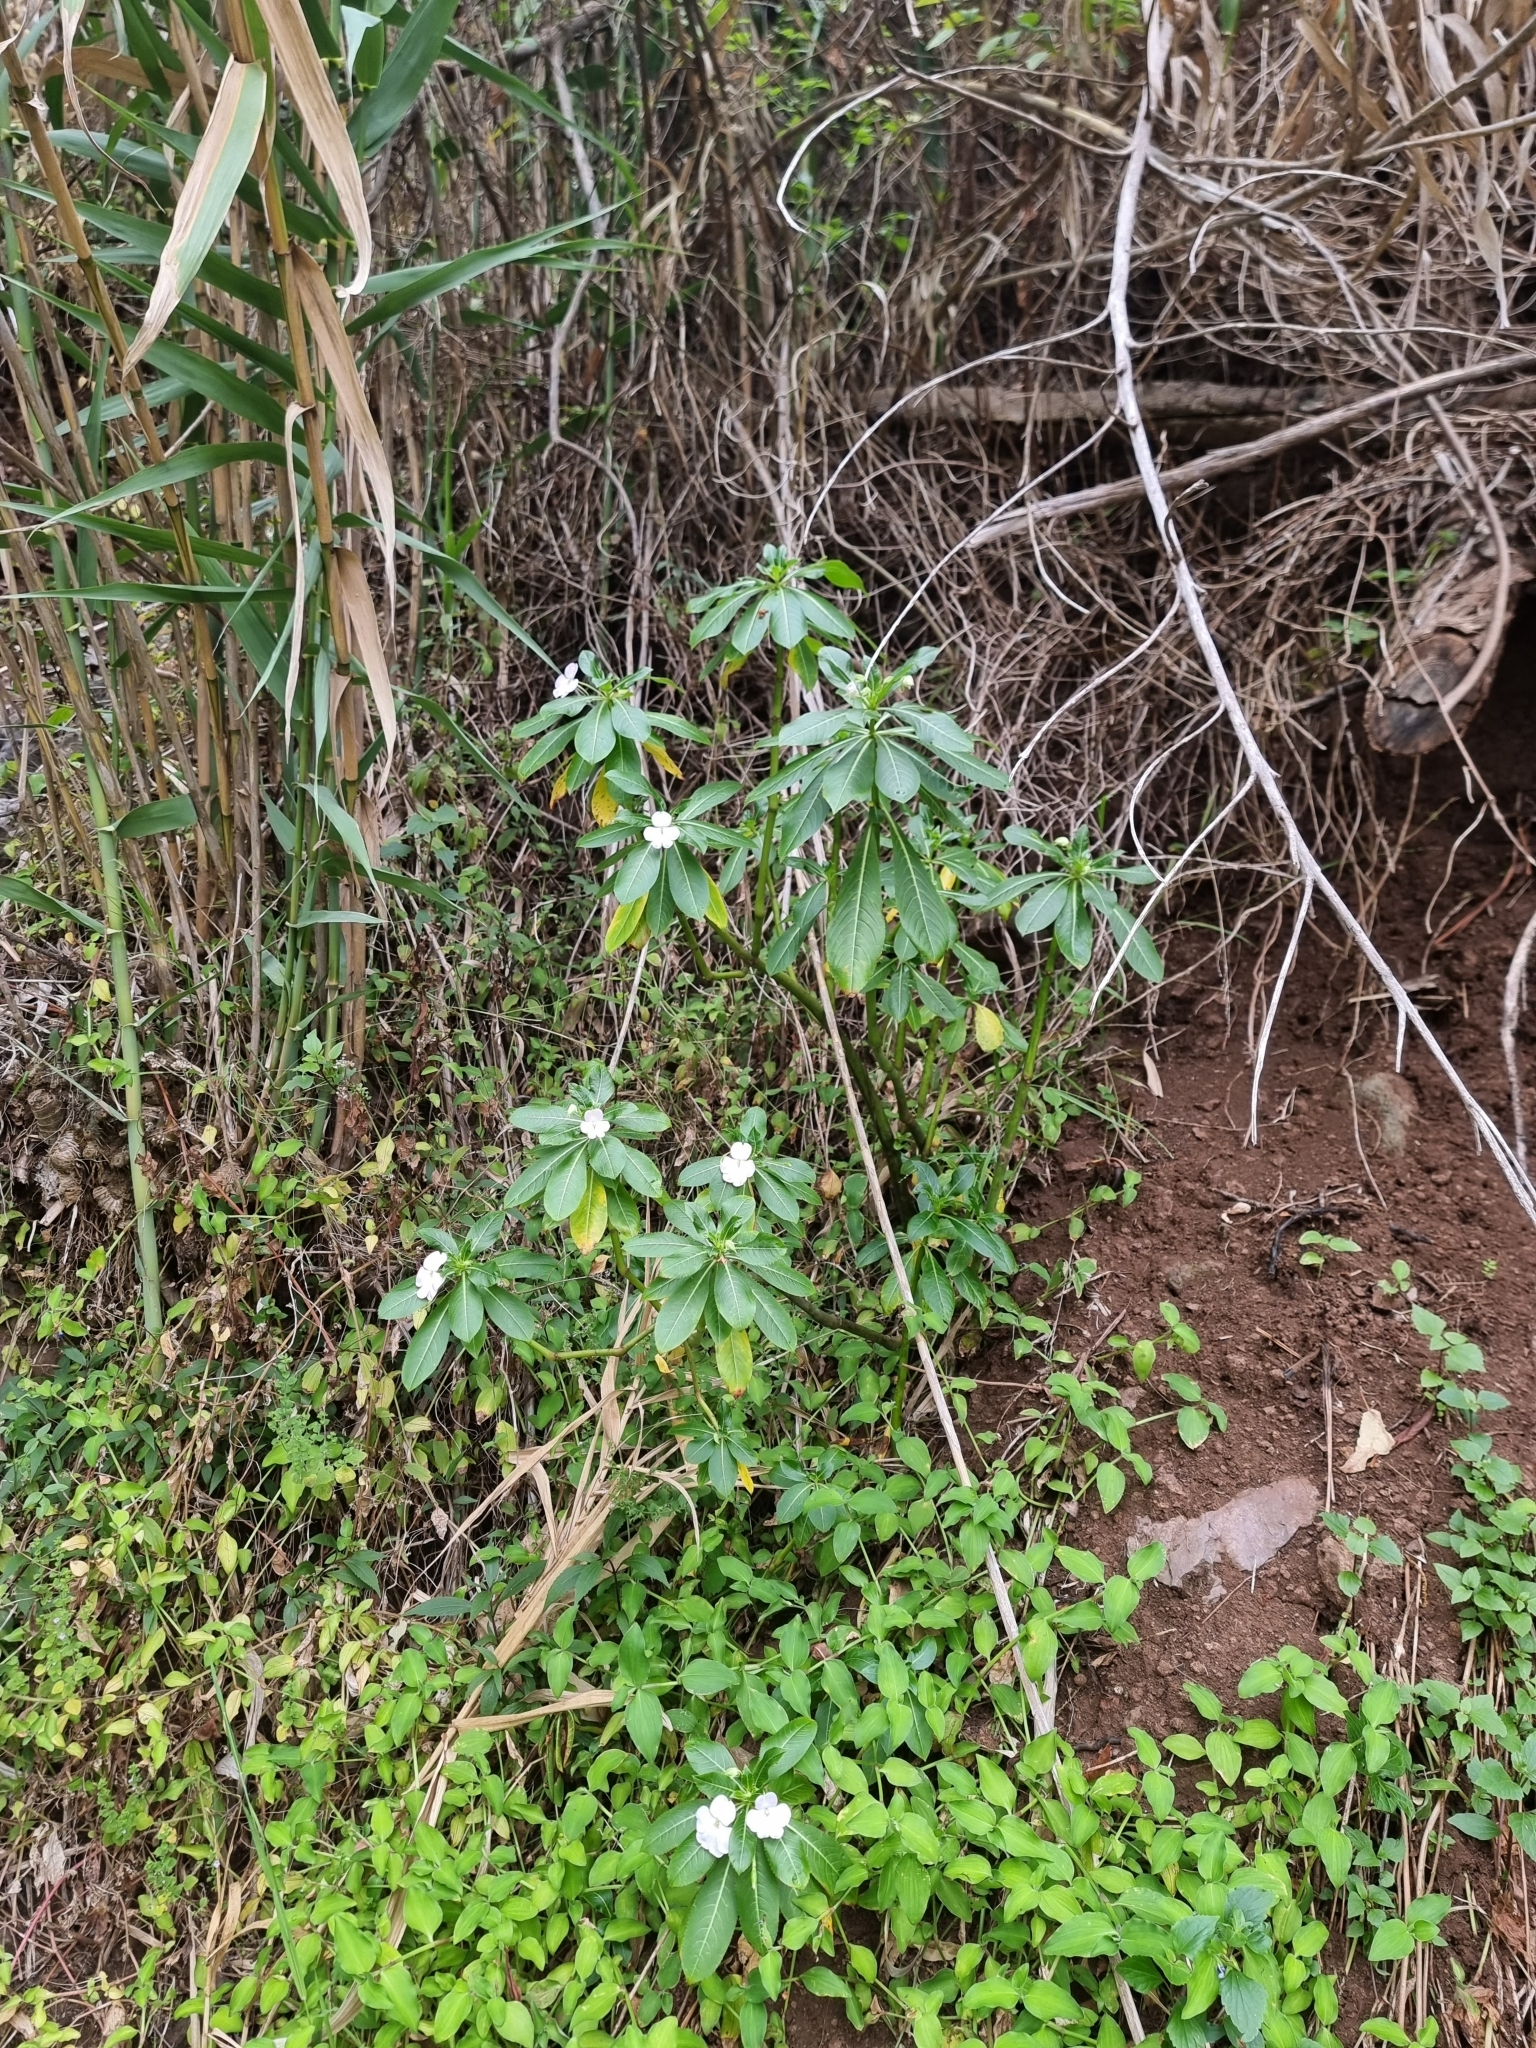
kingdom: Plantae
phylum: Tracheophyta
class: Magnoliopsida
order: Ericales
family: Balsaminaceae
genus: Impatiens
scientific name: Impatiens sodenii
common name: Oliver's touch-me-not
